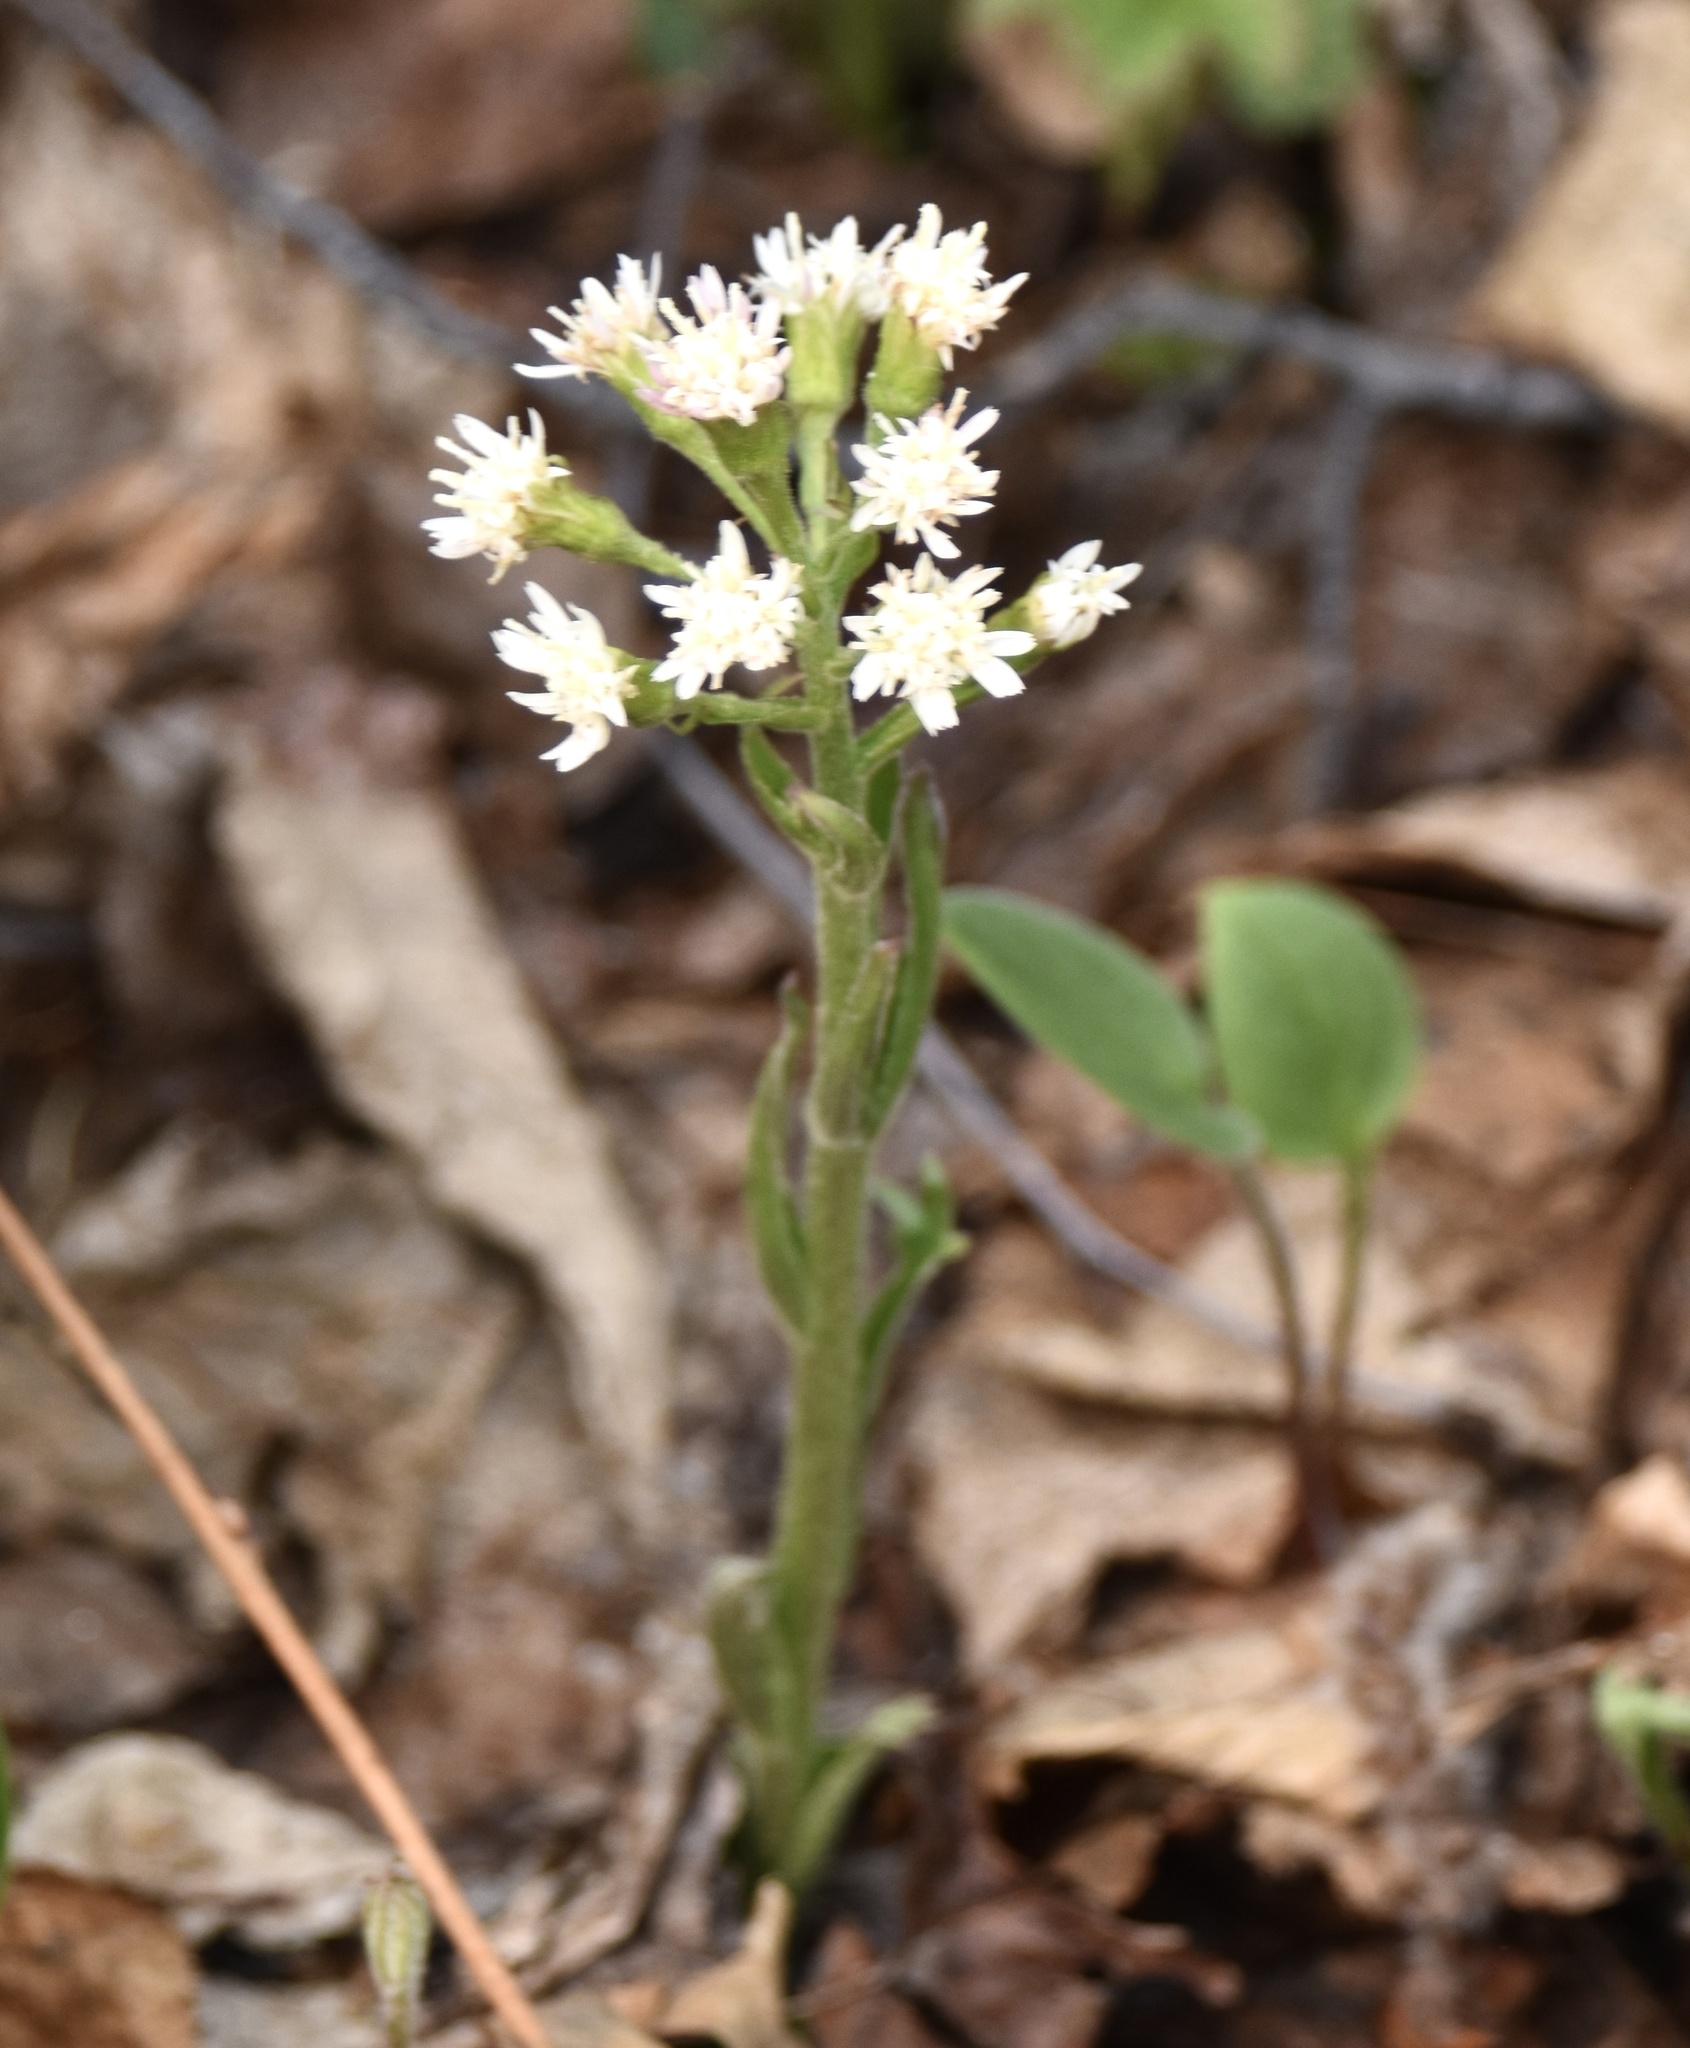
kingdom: Plantae
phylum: Tracheophyta
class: Magnoliopsida
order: Asterales
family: Asteraceae
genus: Petasites
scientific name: Petasites frigidus
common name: Arctic butterbur
